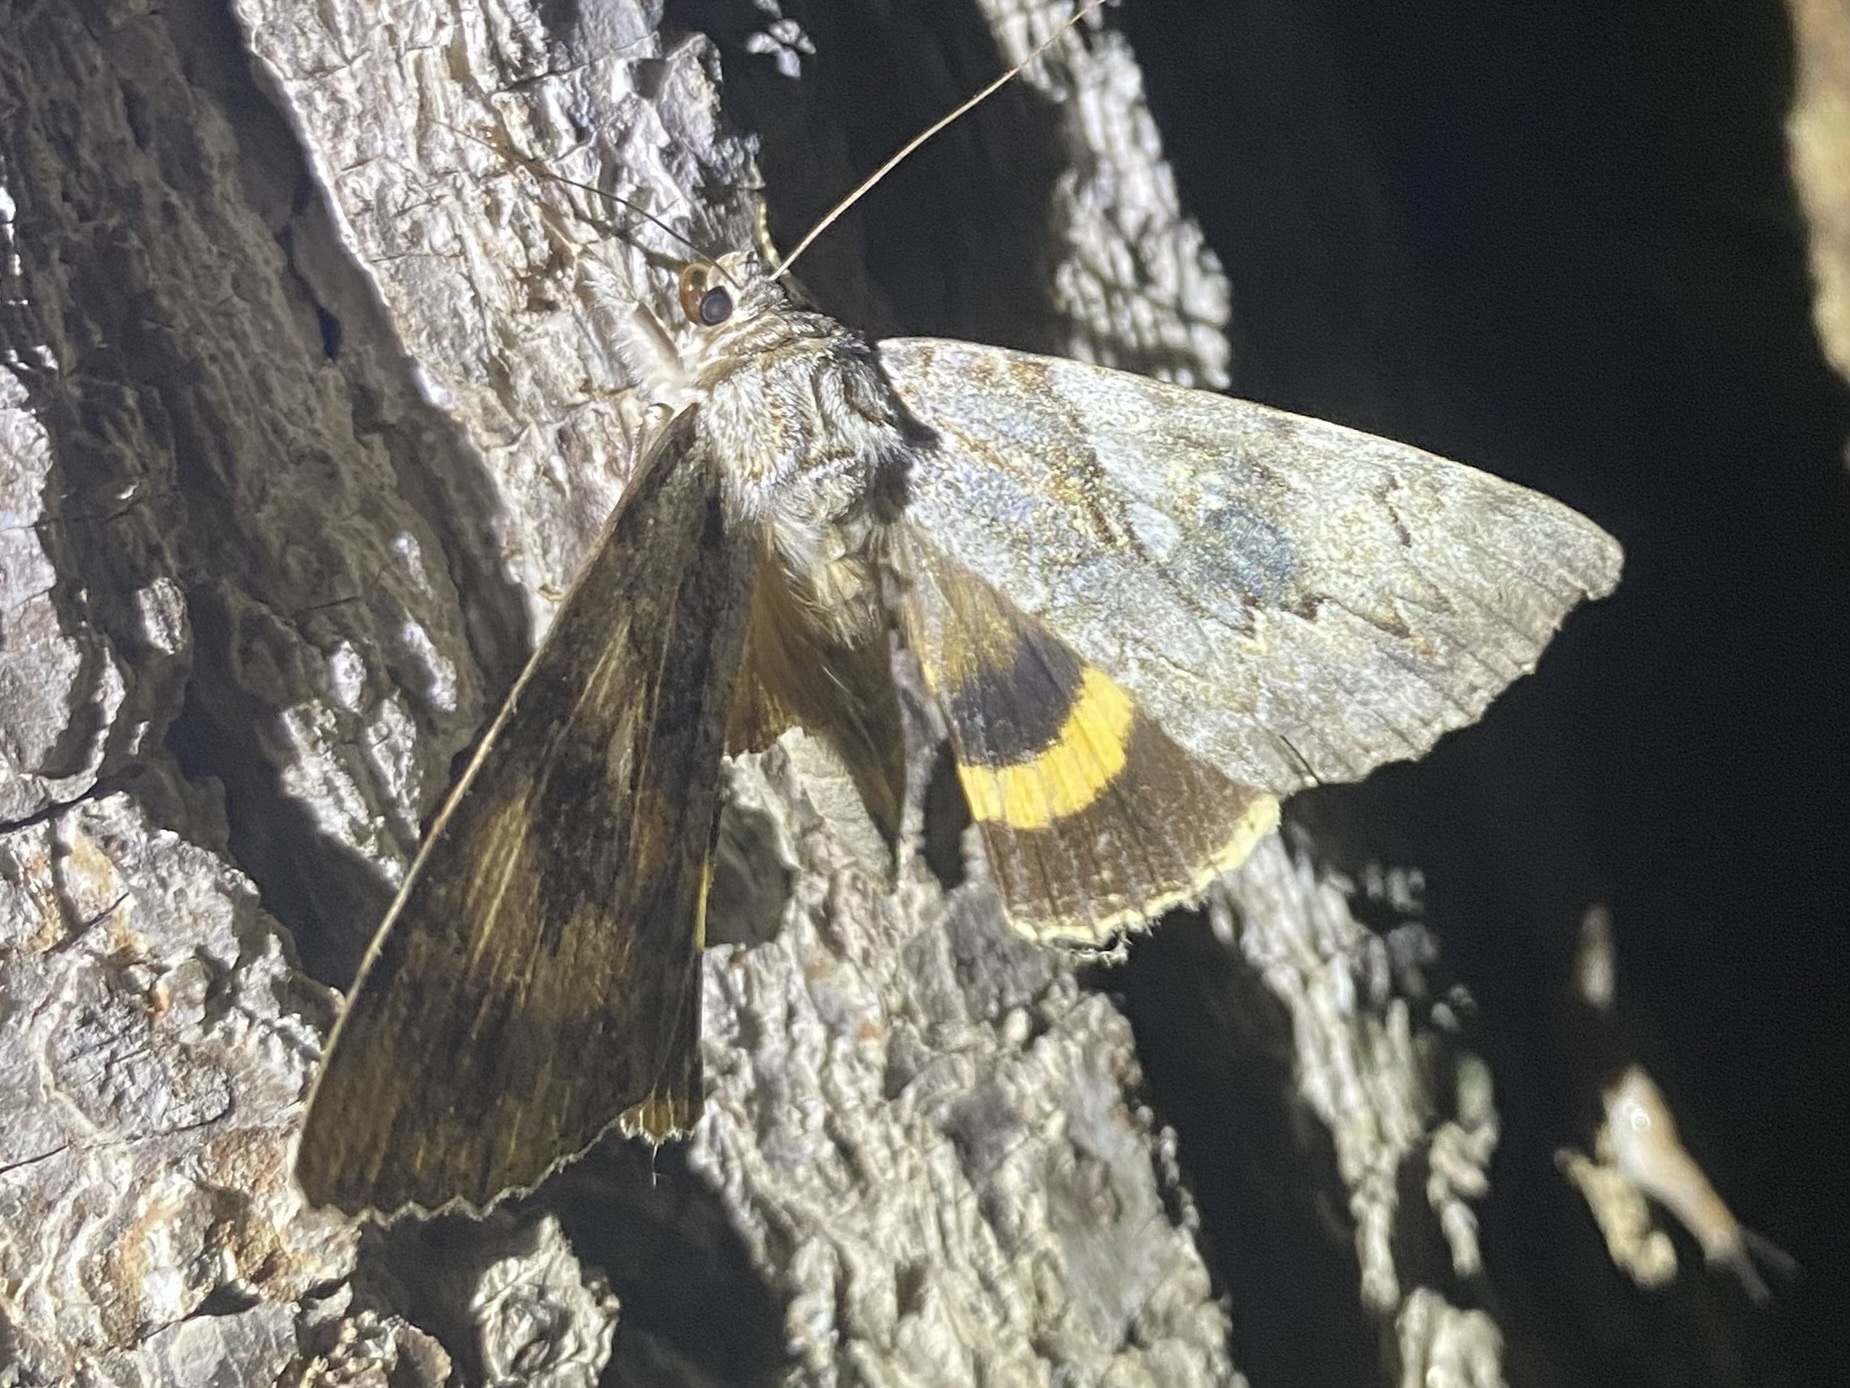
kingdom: Animalia
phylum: Arthropoda
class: Insecta
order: Lepidoptera
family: Erebidae
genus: Catocala
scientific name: Catocala cerogama
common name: Yellow banded underwing
